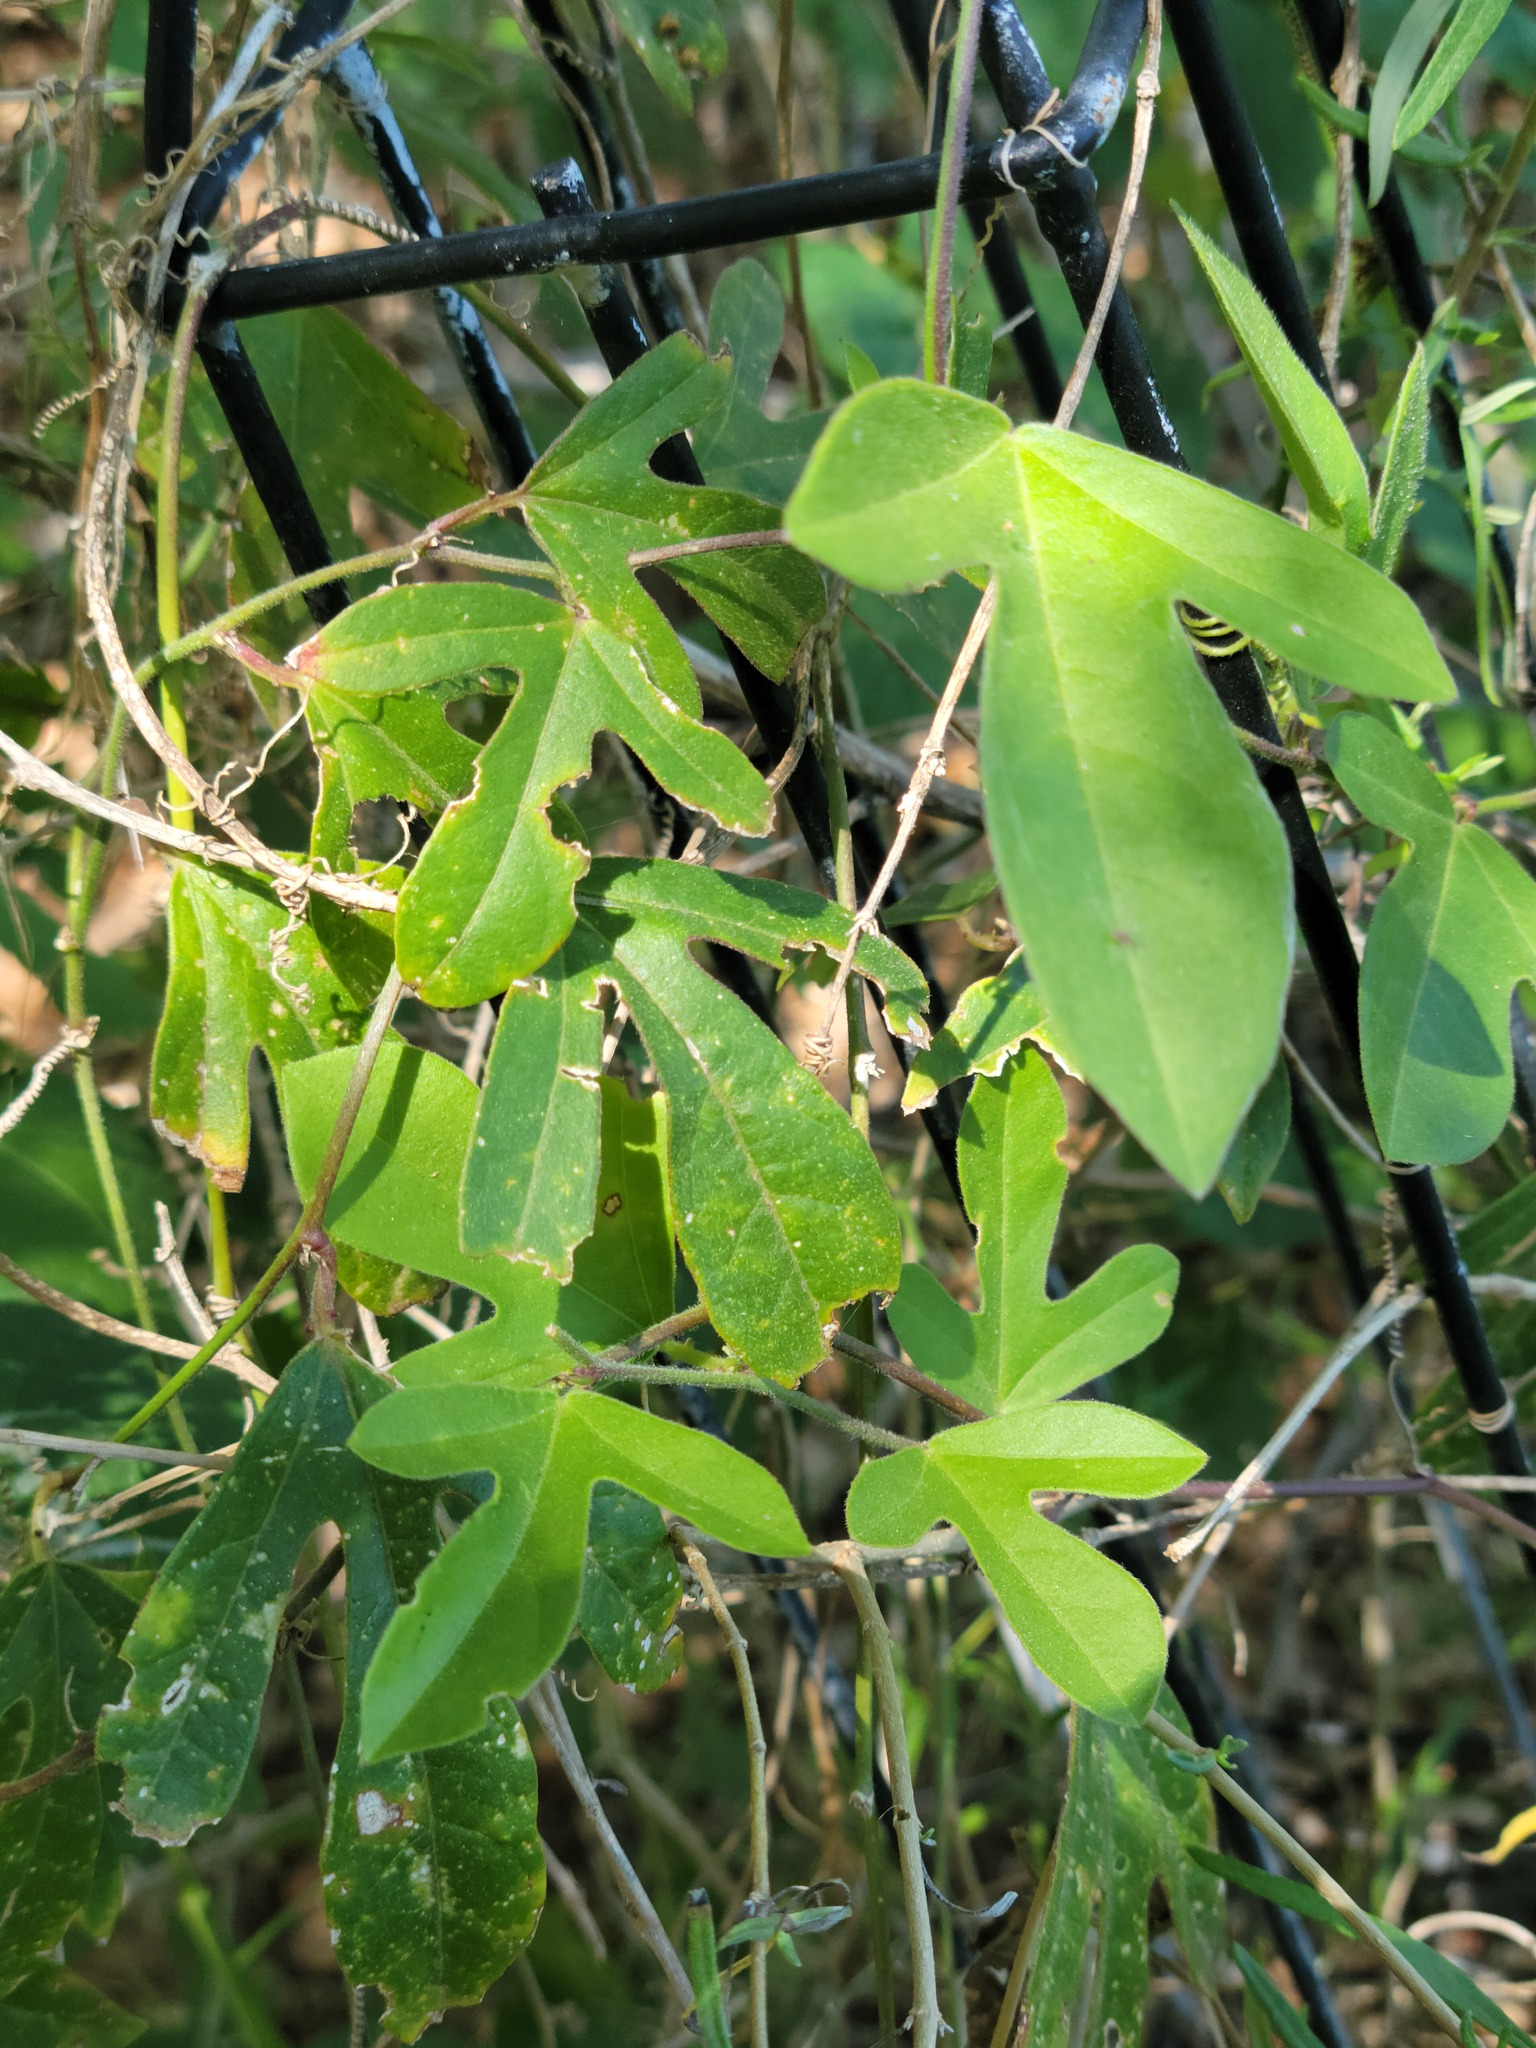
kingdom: Plantae
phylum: Tracheophyta
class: Magnoliopsida
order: Malpighiales
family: Passifloraceae
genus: Passiflora
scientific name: Passiflora pallida
